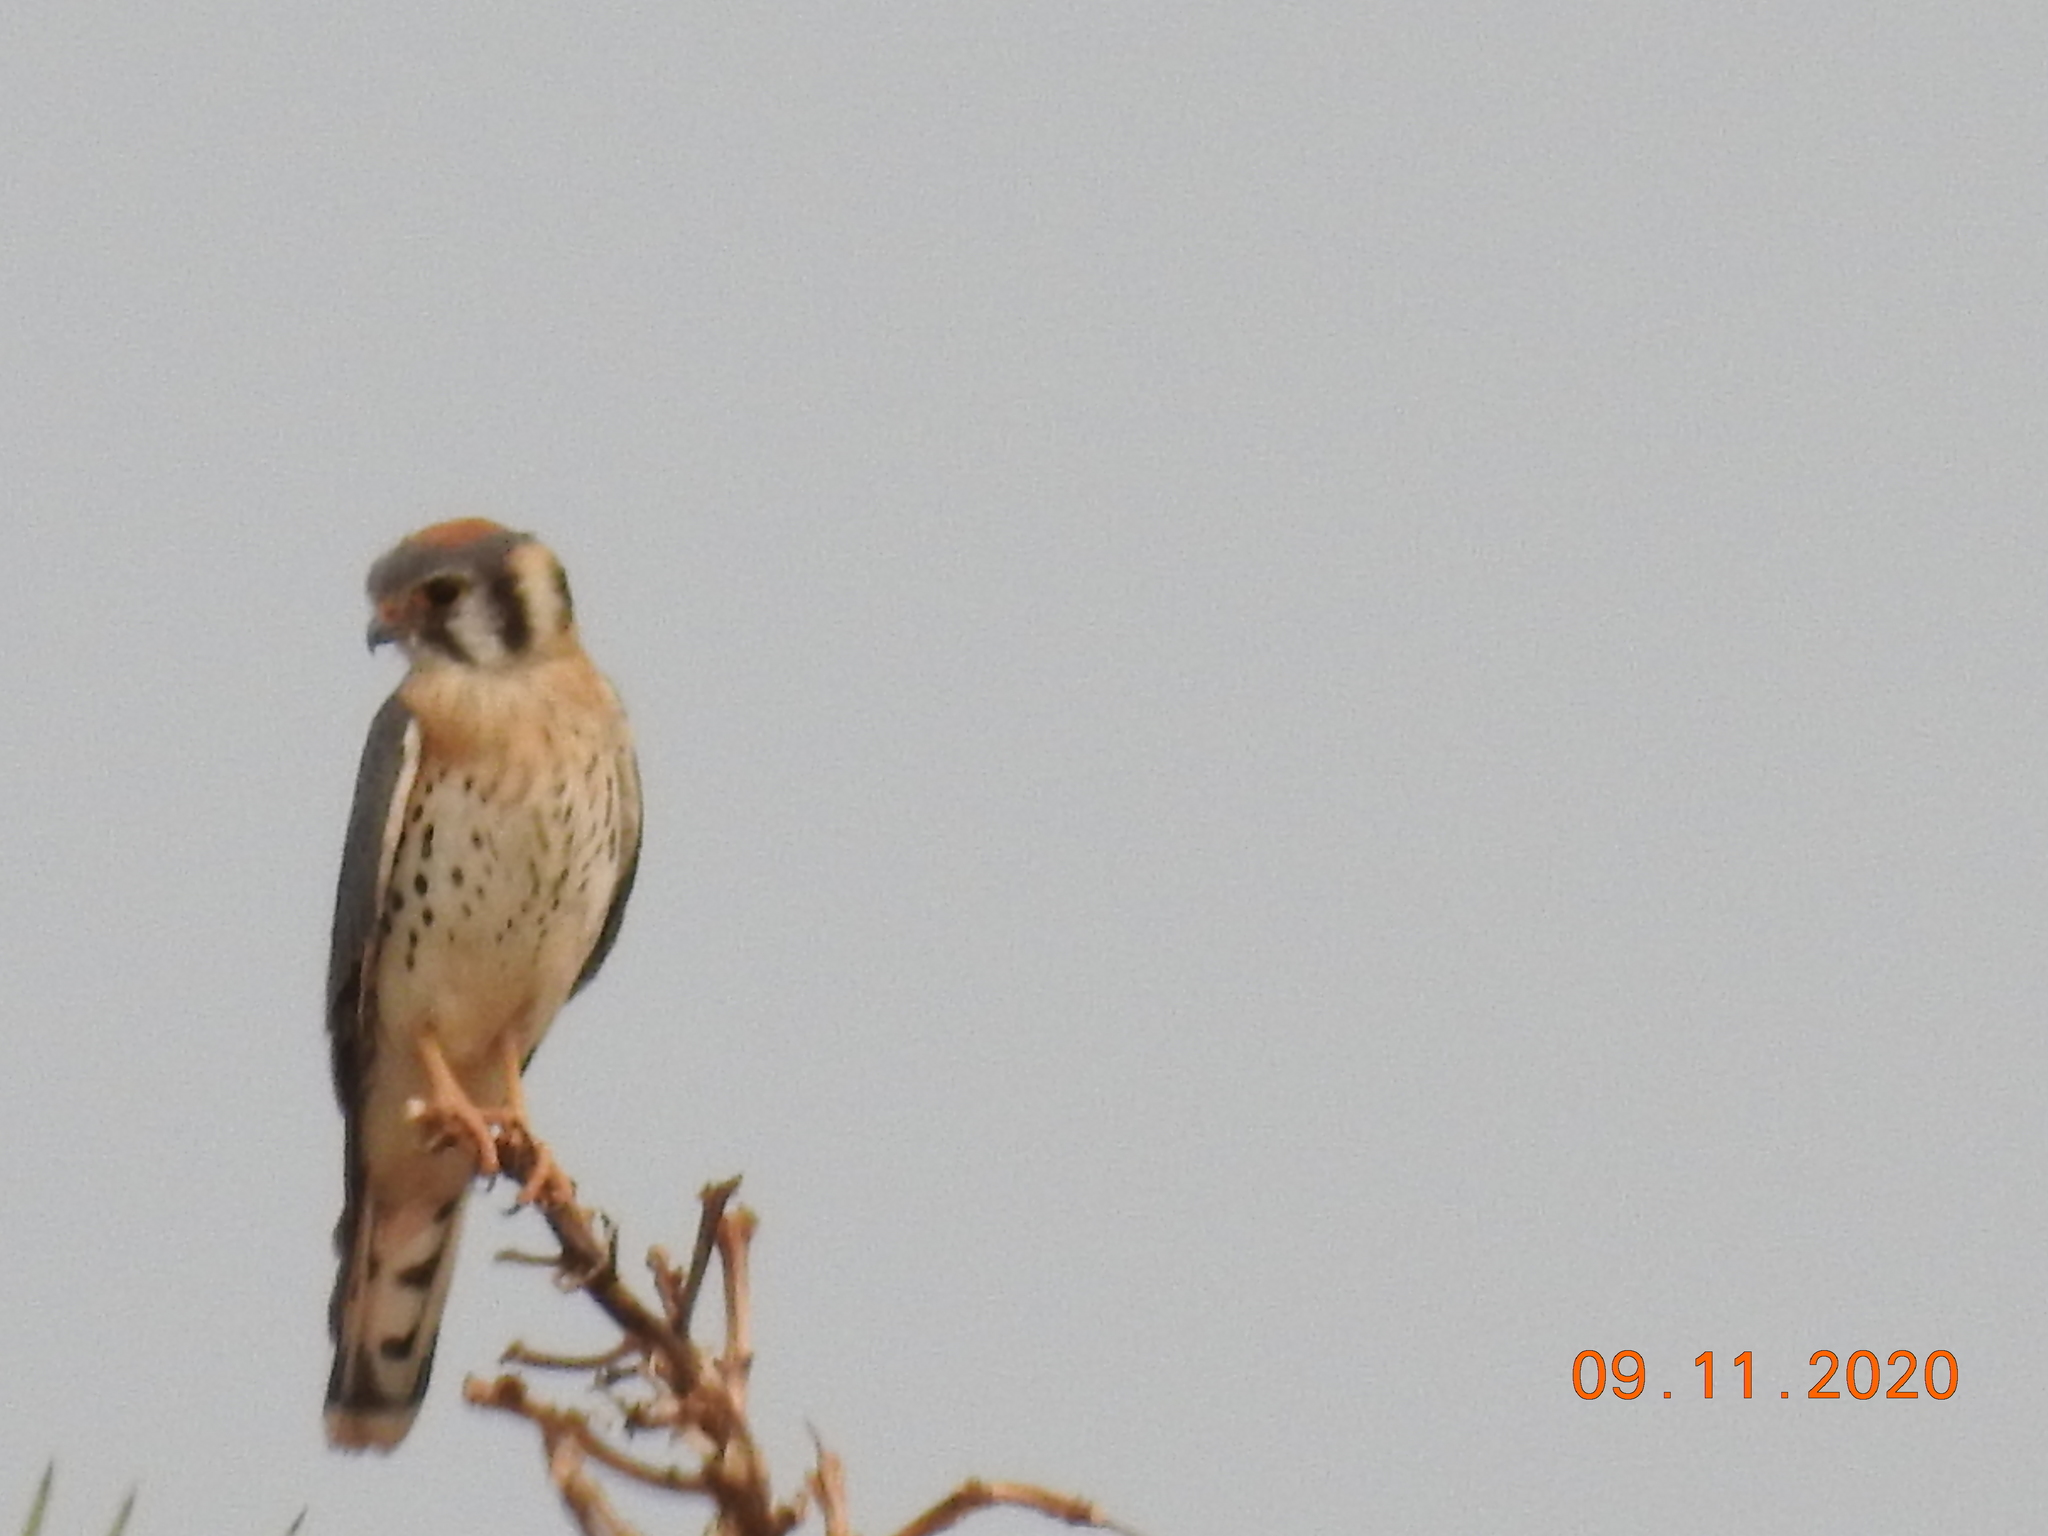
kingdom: Animalia
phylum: Chordata
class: Aves
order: Falconiformes
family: Falconidae
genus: Falco
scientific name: Falco sparverius
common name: American kestrel
